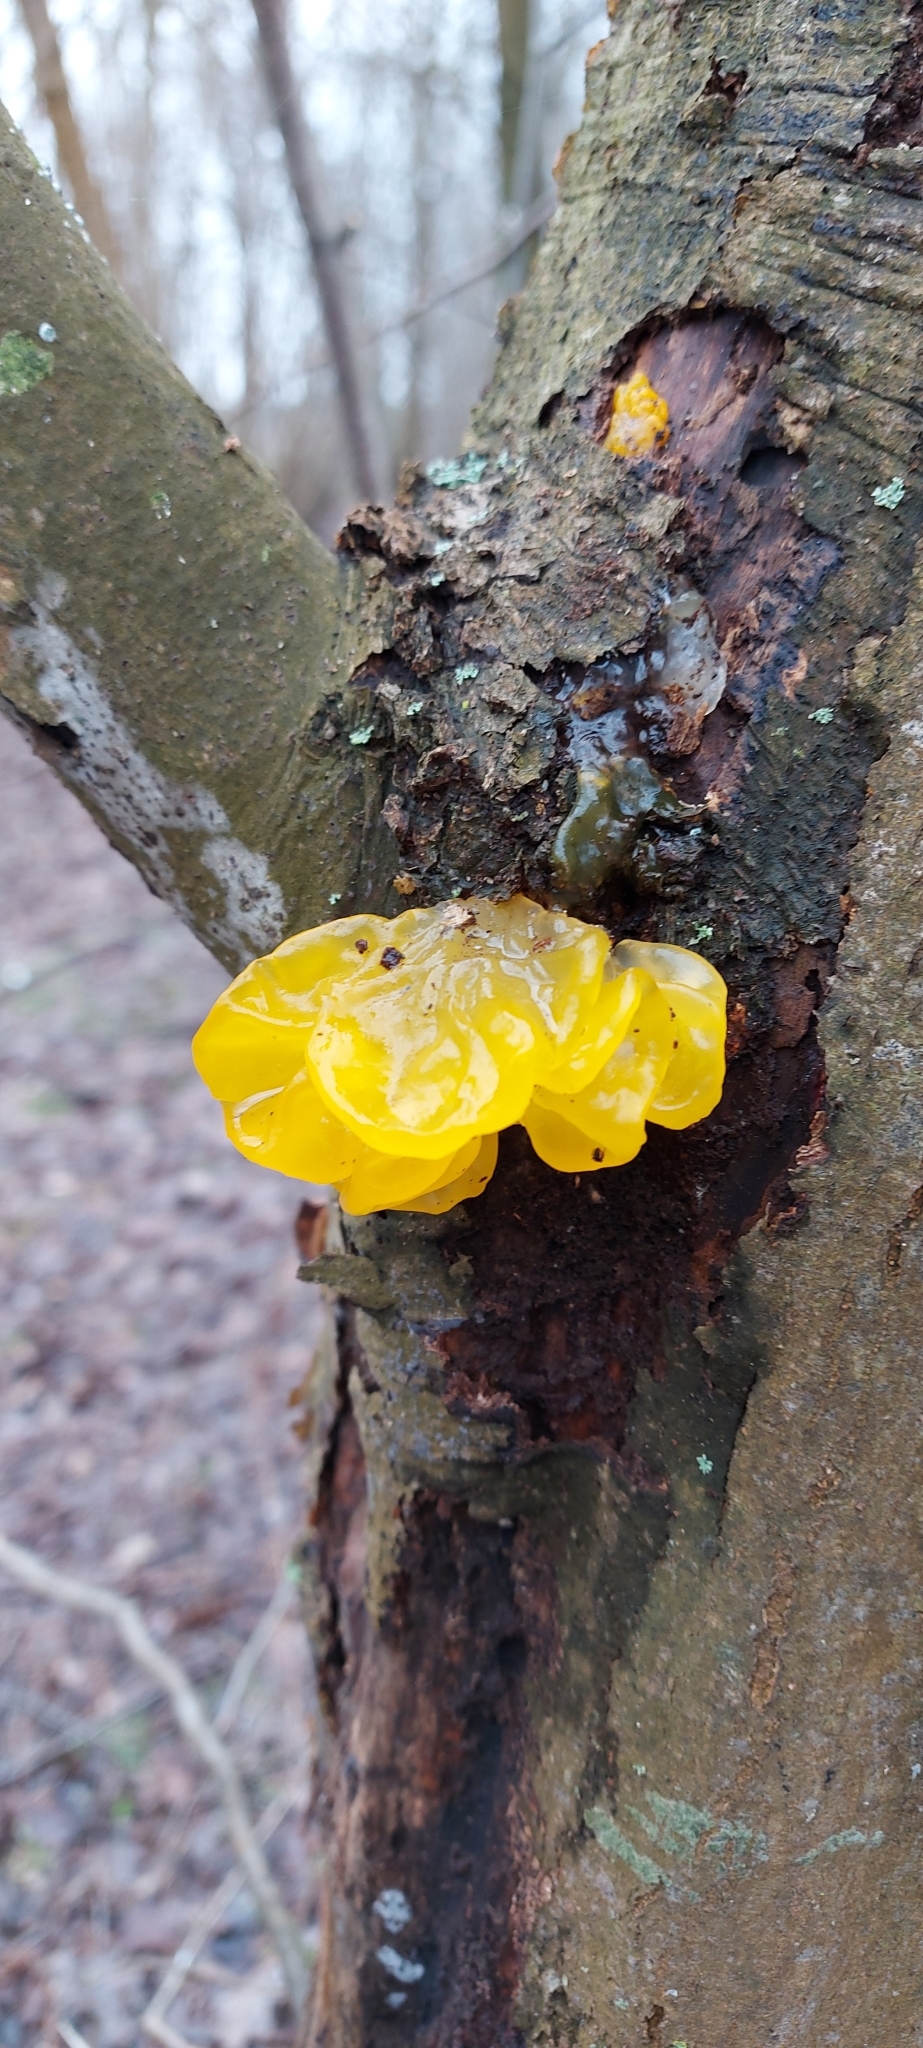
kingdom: Fungi
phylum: Basidiomycota
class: Tremellomycetes
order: Tremellales
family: Tremellaceae
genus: Tremella
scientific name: Tremella mesenterica
